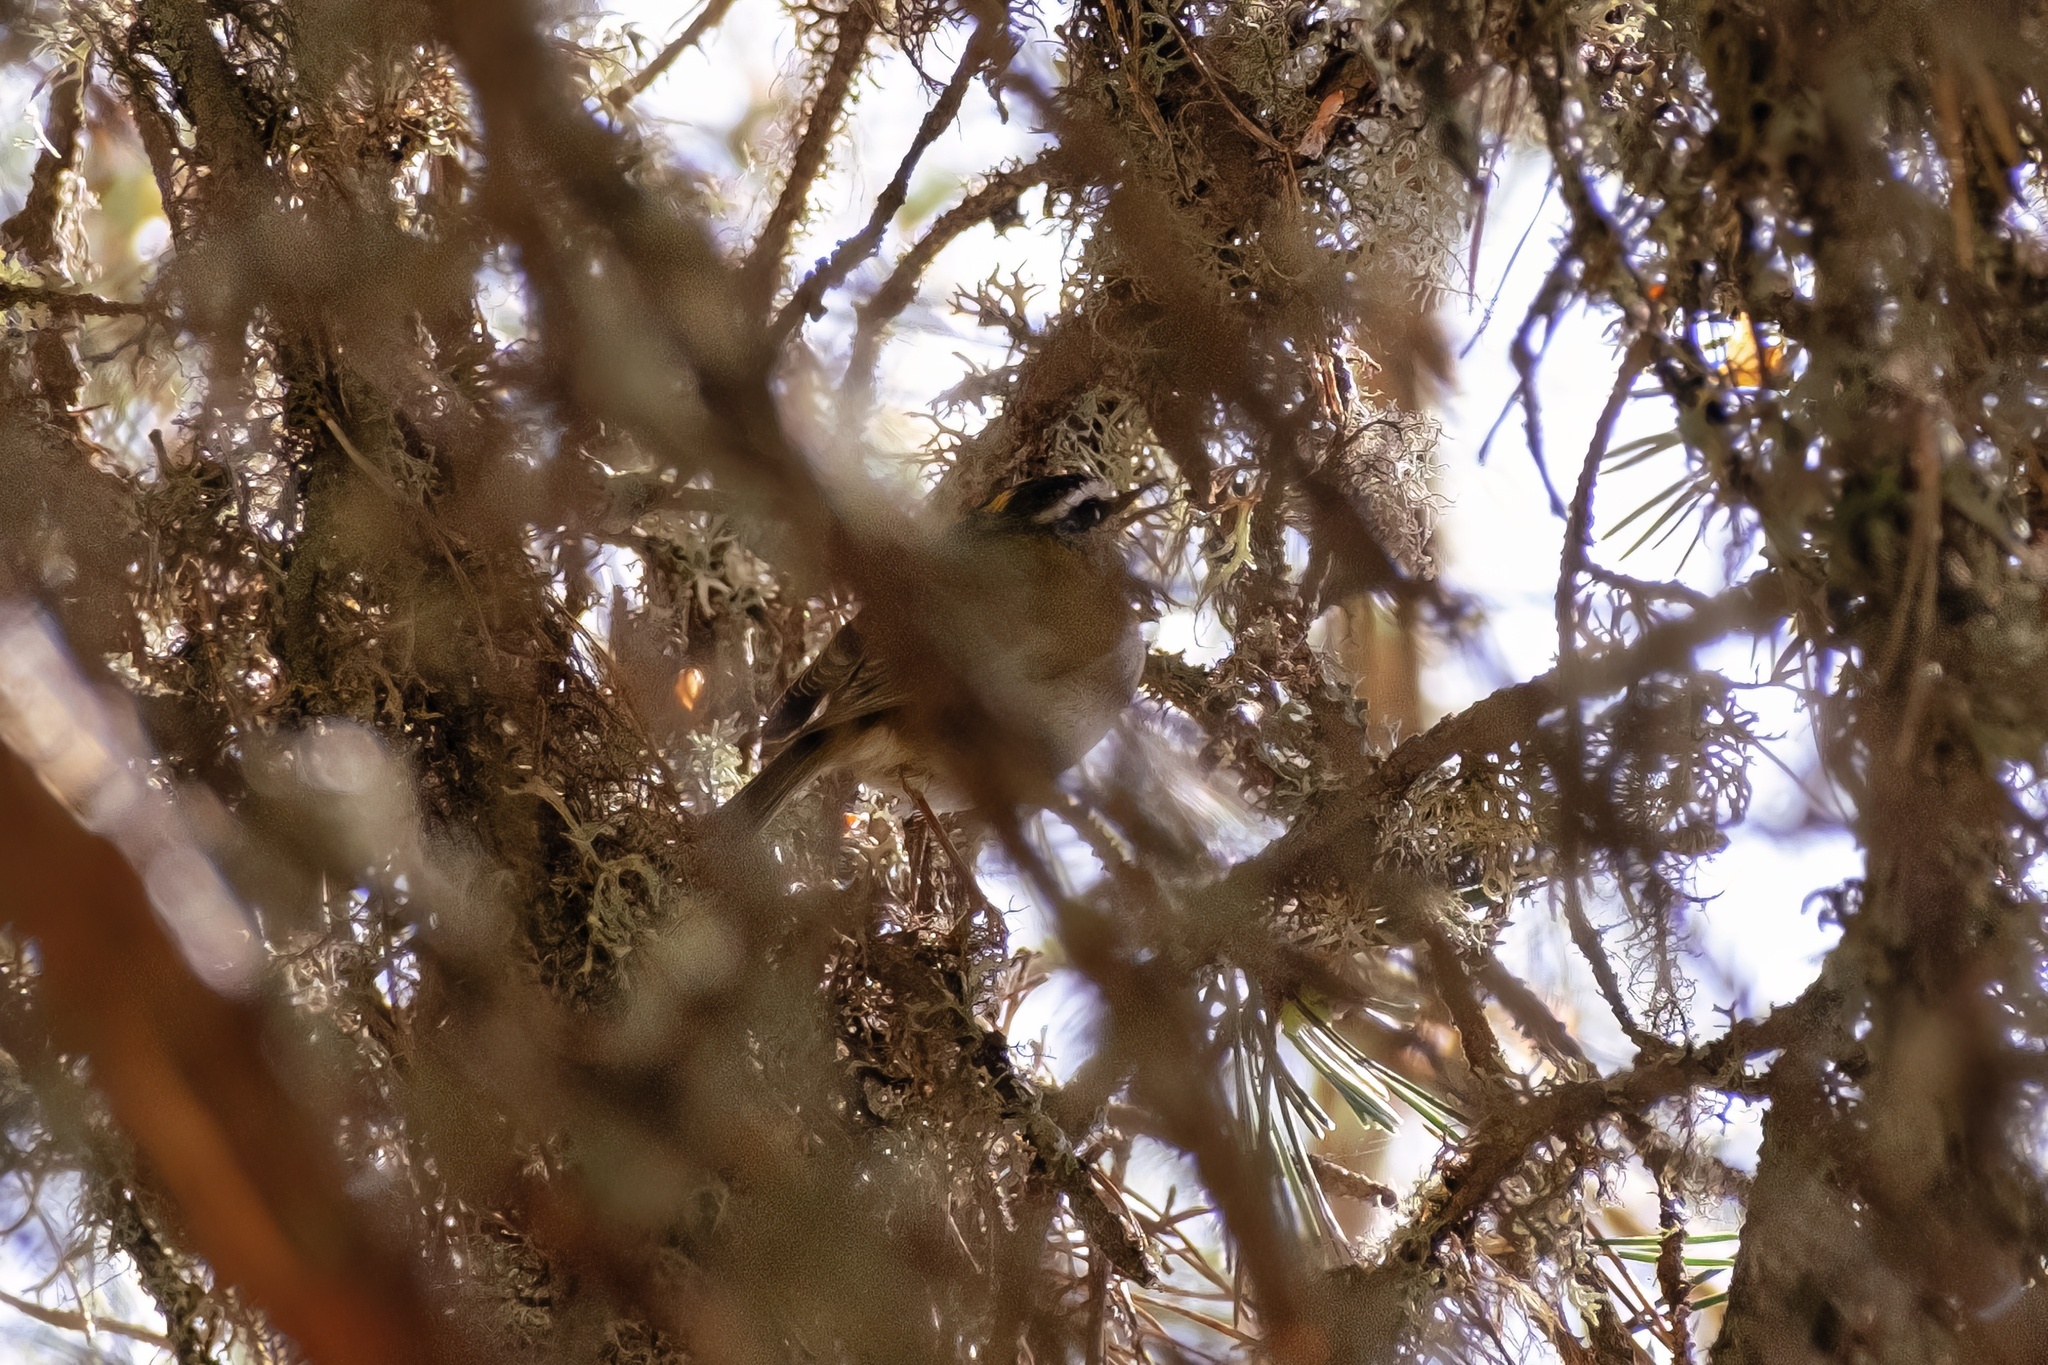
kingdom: Animalia
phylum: Chordata
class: Aves
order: Passeriformes
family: Regulidae
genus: Regulus
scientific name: Regulus ignicapilla
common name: Firecrest
